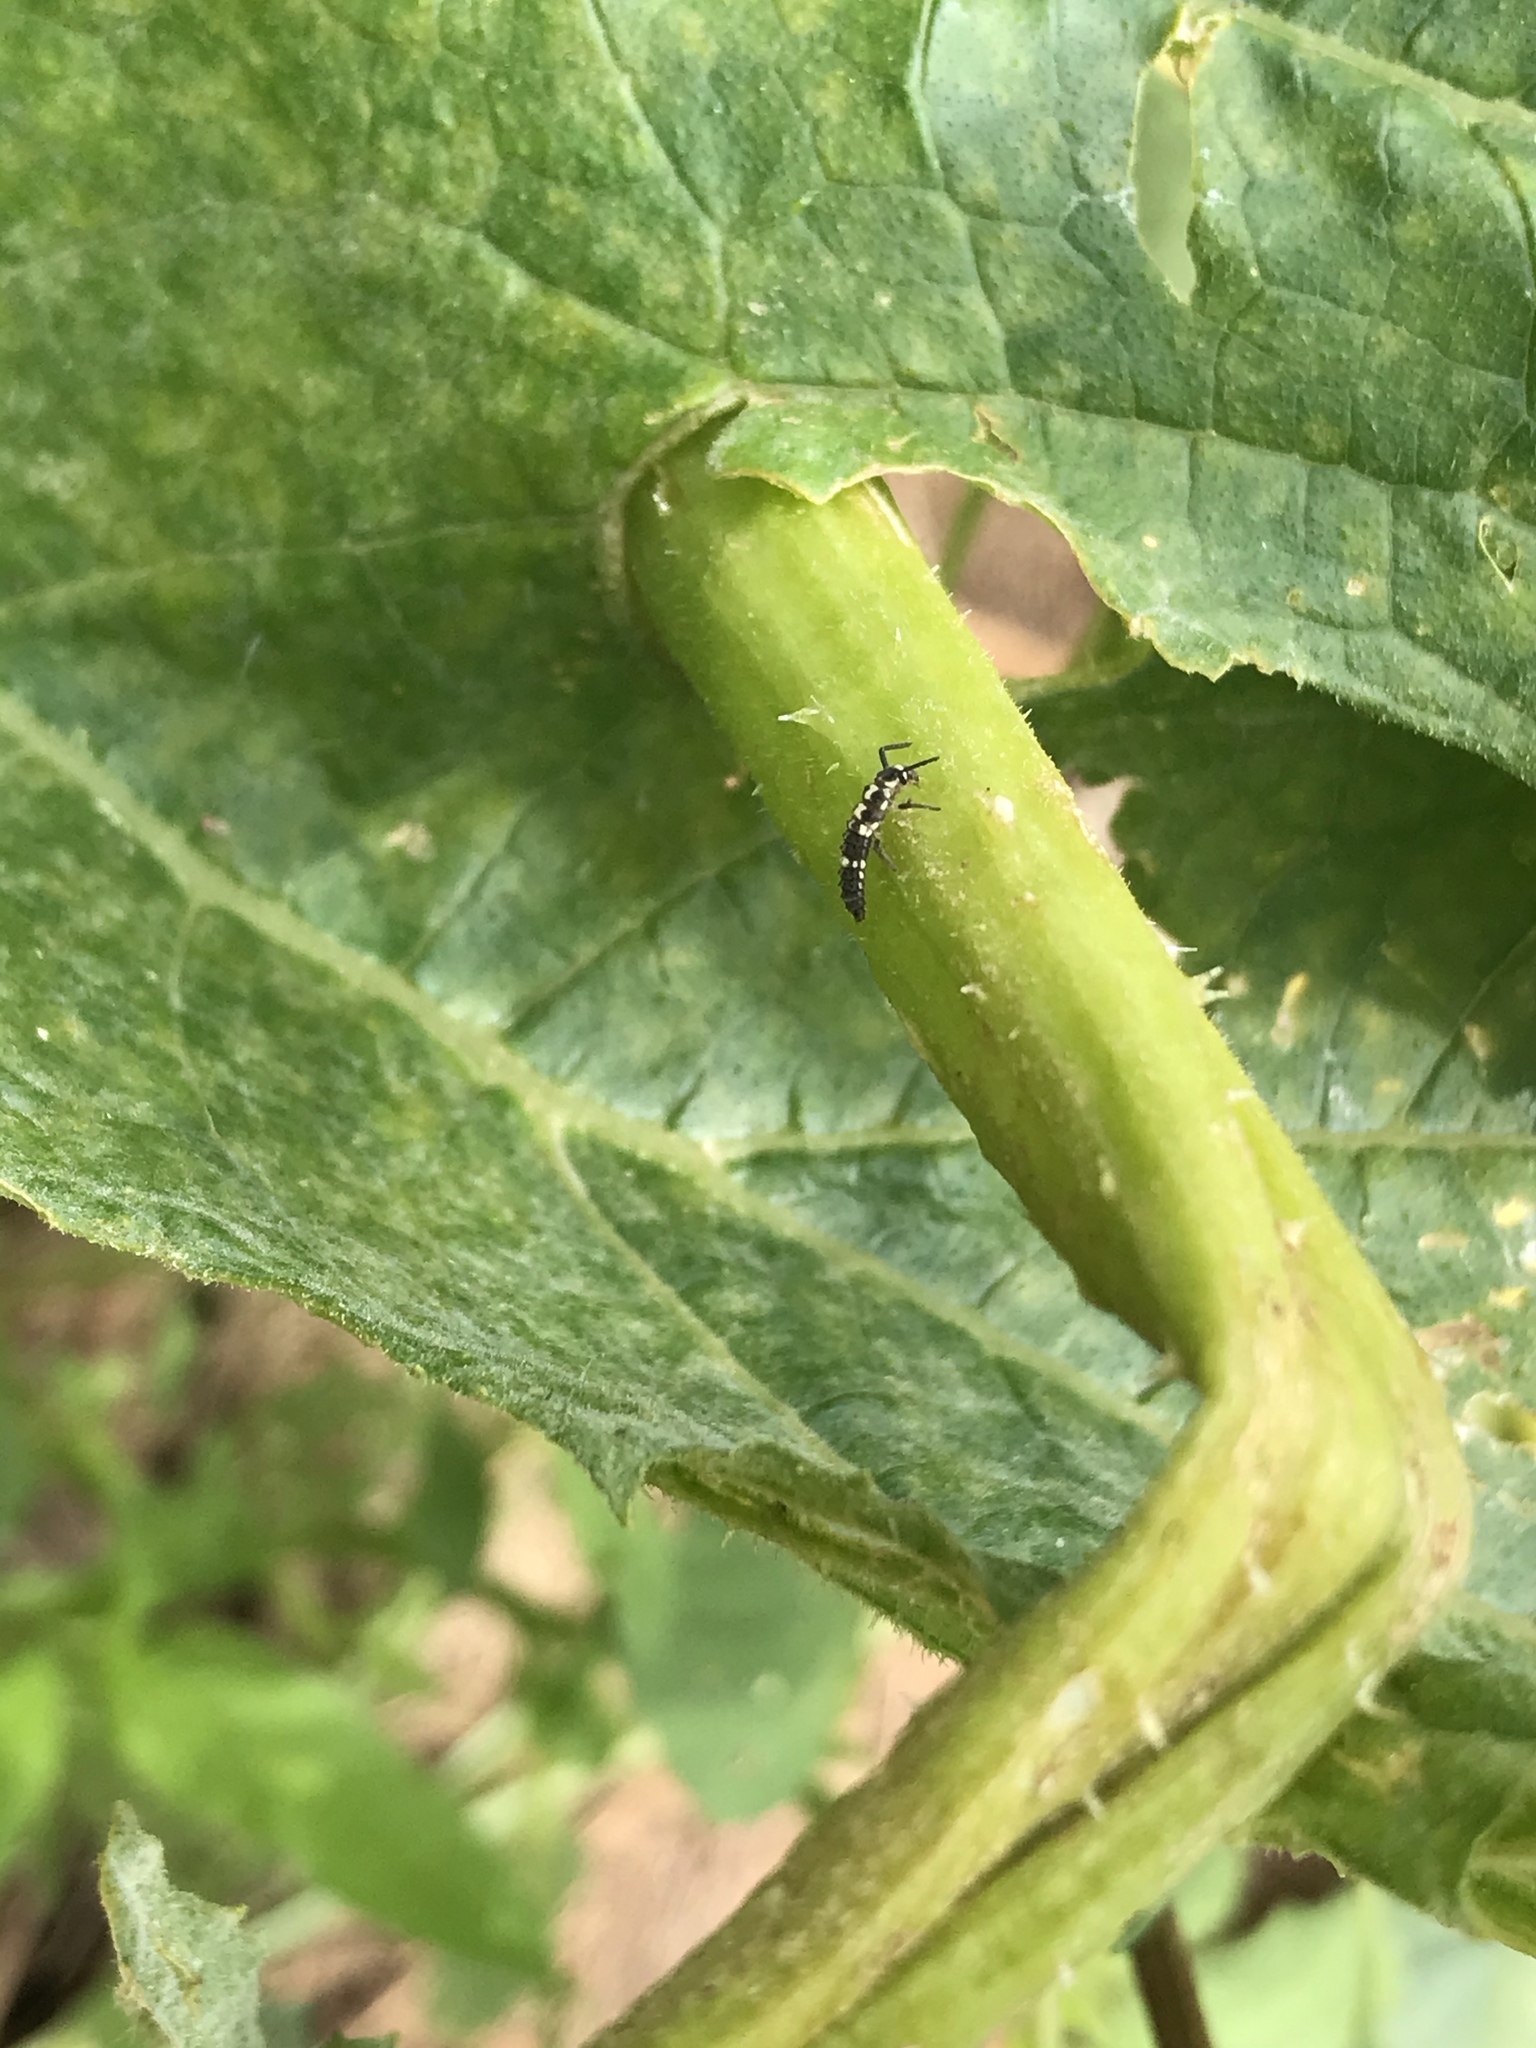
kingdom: Animalia
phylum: Arthropoda
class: Insecta
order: Coleoptera
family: Coccinellidae
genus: Propylaea
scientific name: Propylaea quatuordecimpunctata
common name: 14-spotted ladybird beetle
